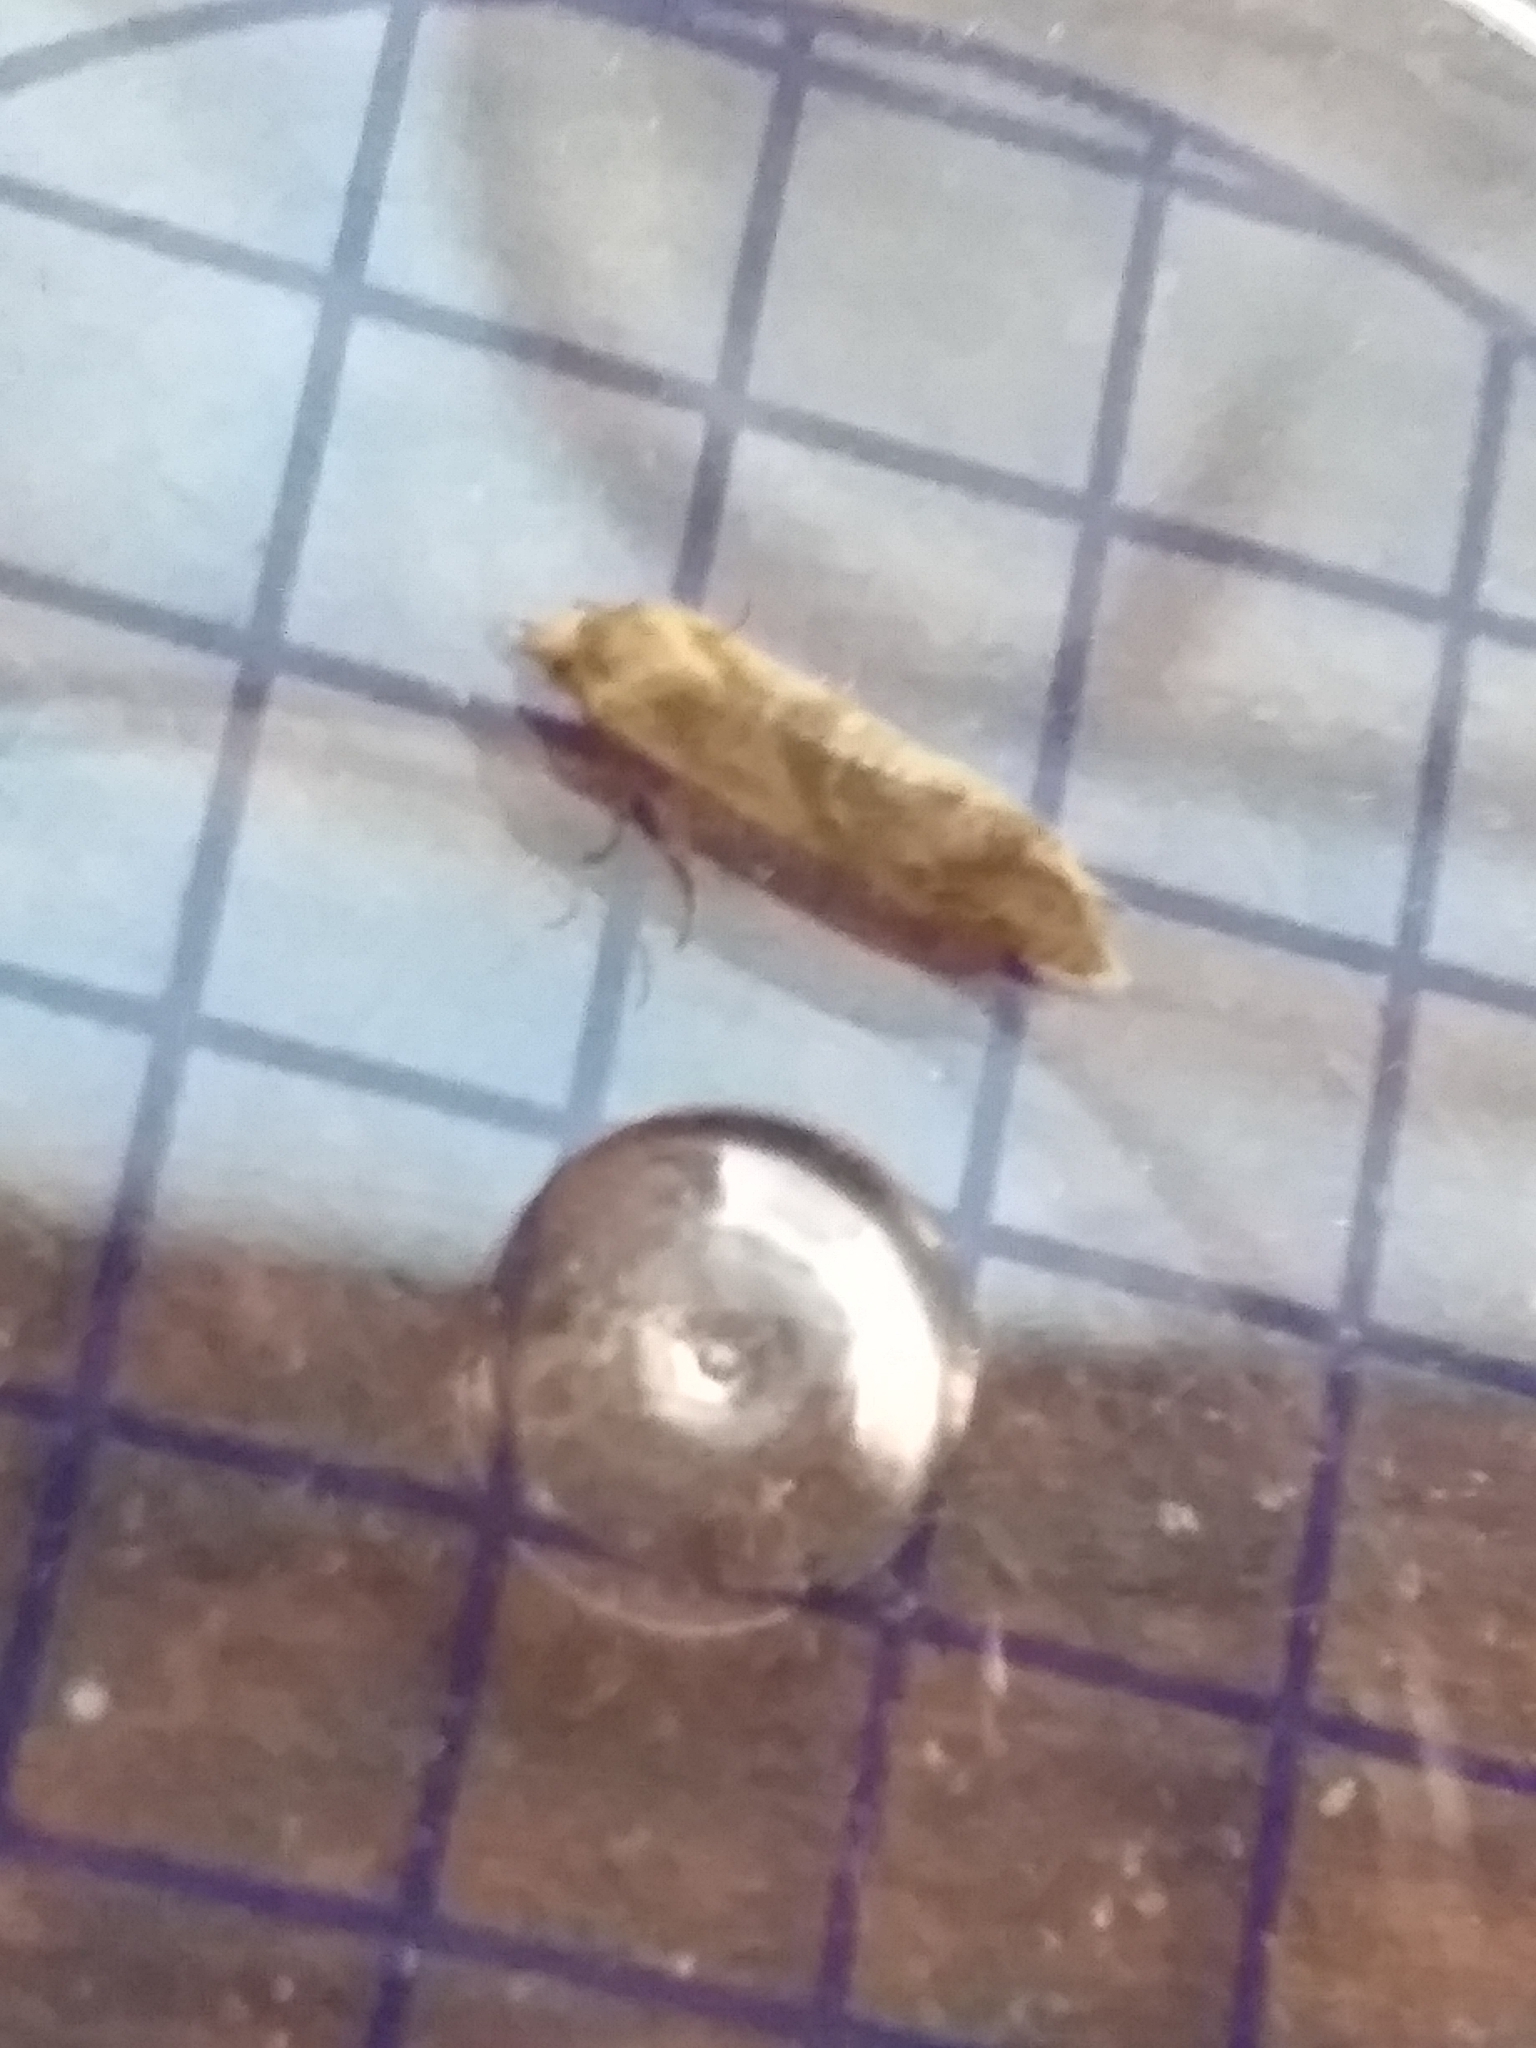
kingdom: Animalia
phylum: Arthropoda
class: Insecta
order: Lepidoptera
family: Tortricidae
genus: Aethes
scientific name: Aethes smeathmanniana
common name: Yarrow conch
